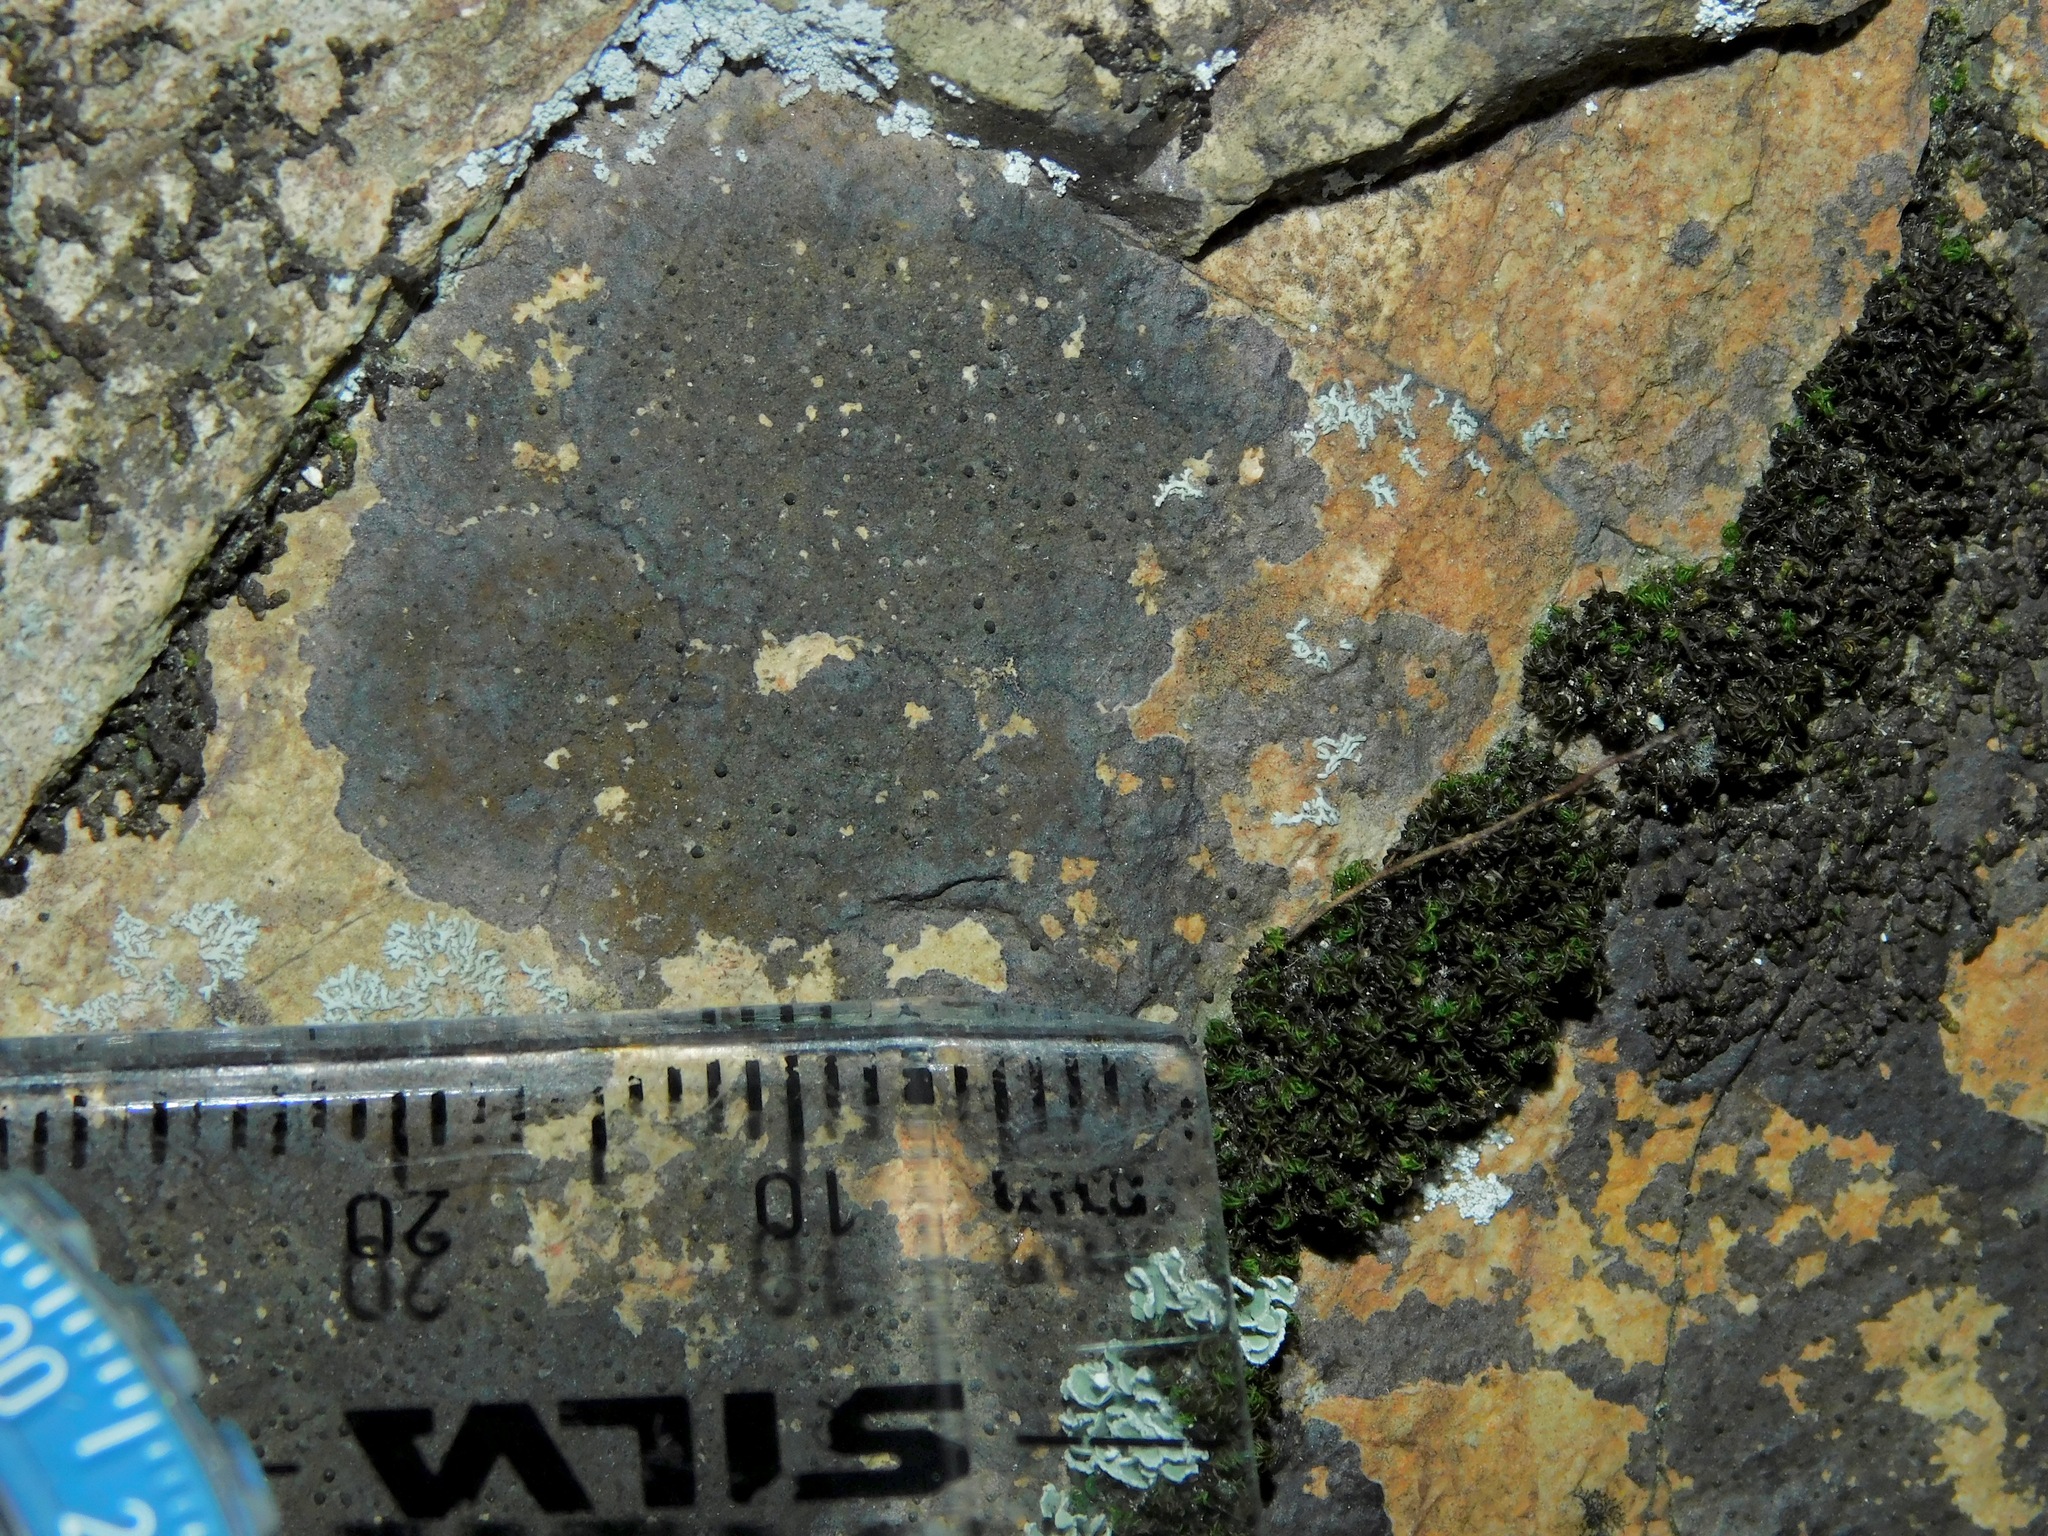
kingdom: Fungi
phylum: Ascomycota
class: Lecanoromycetes
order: Lecanorales
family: Scoliciosporaceae
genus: Scoliciosporum
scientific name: Scoliciosporum umbrinum
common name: Umber dot lichen
